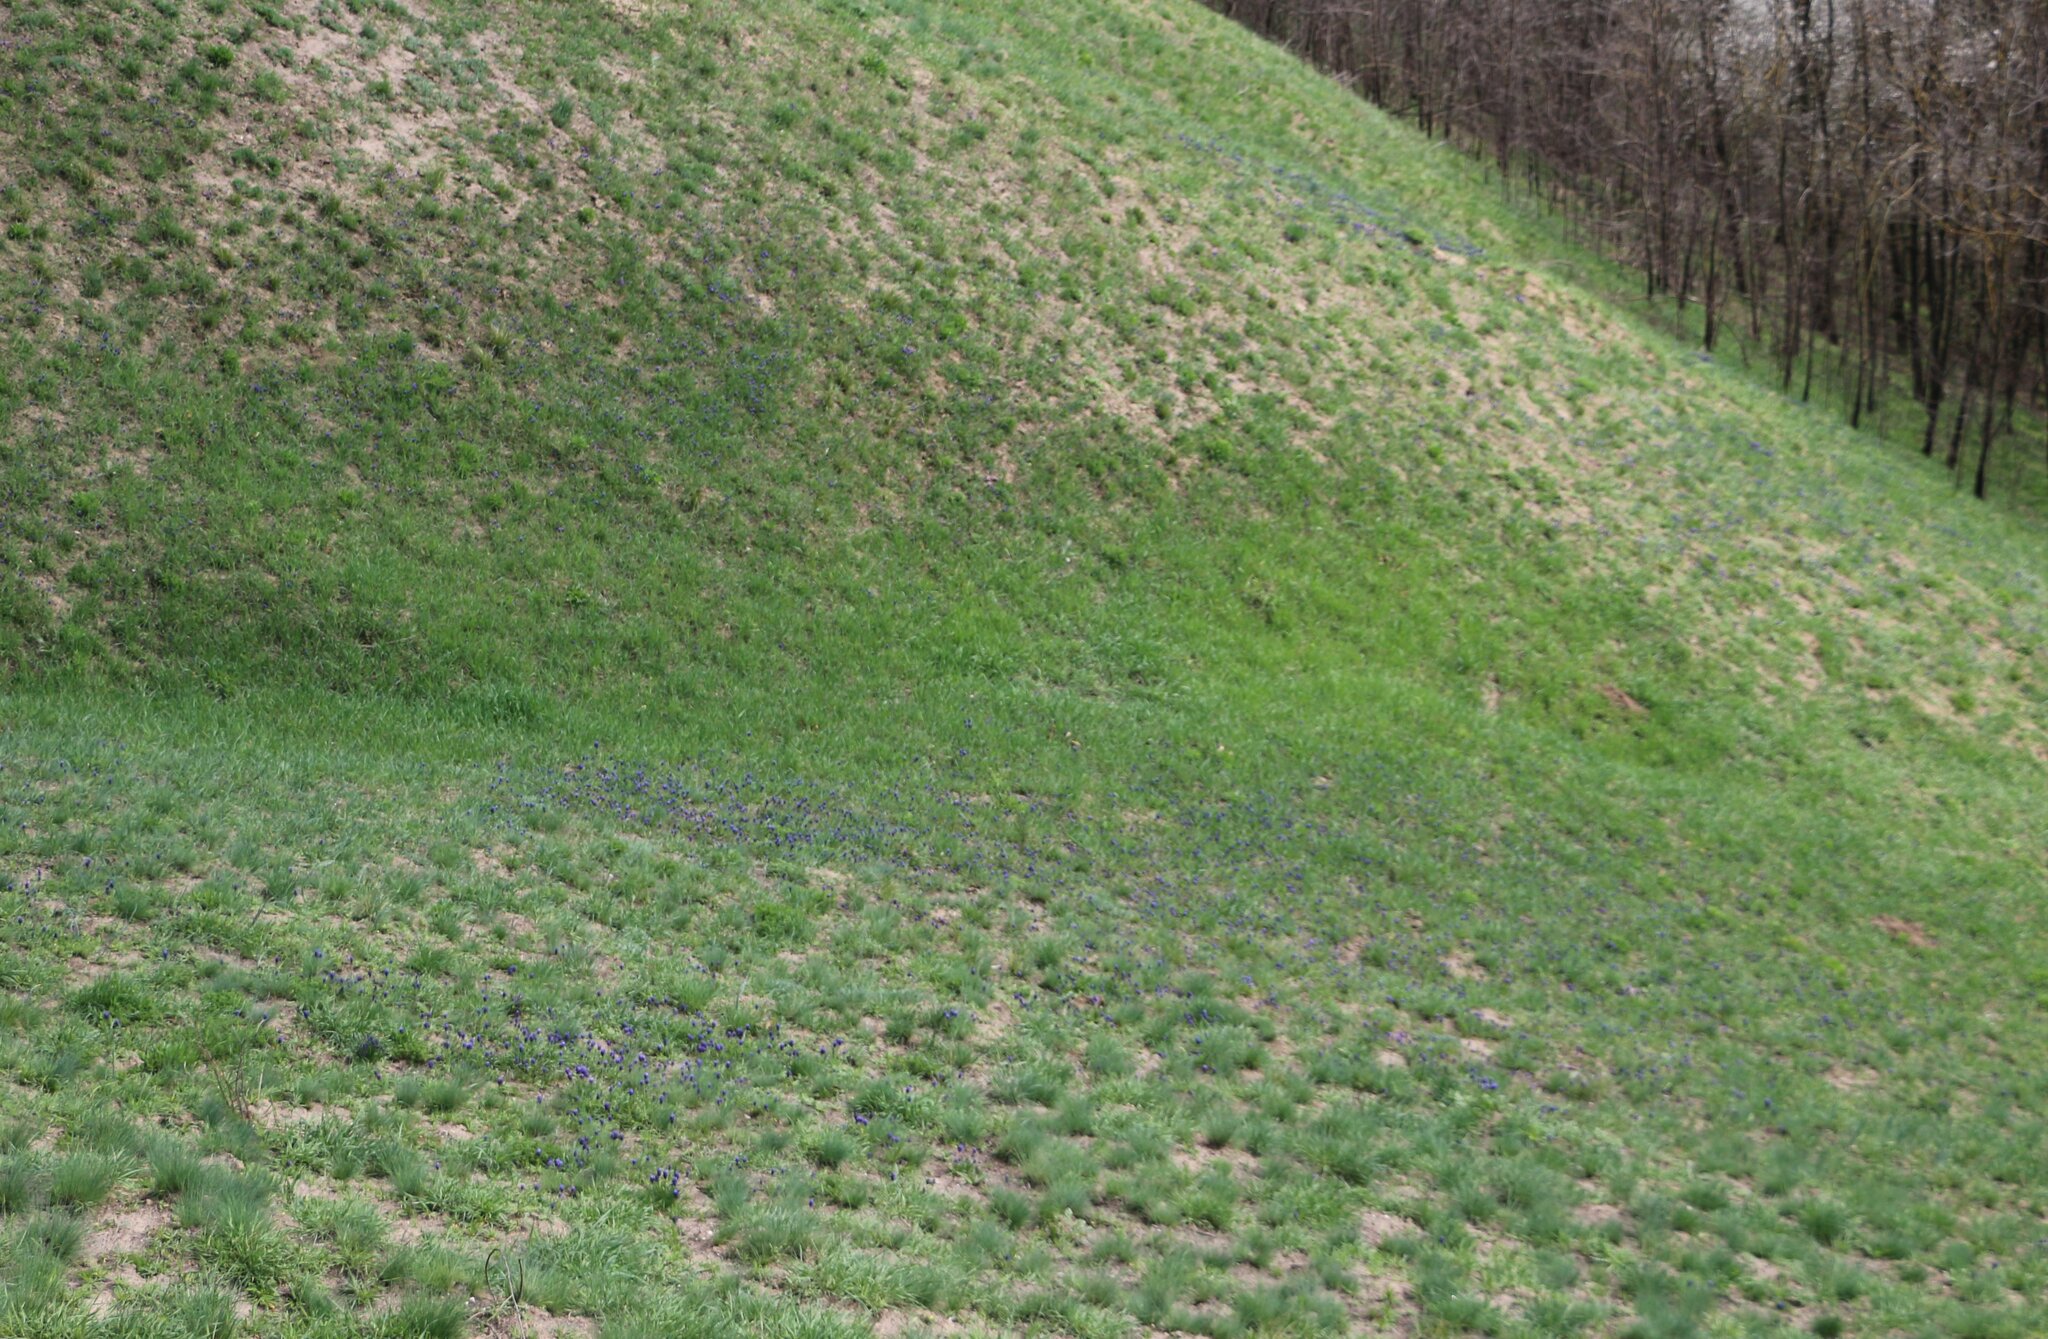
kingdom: Plantae
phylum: Tracheophyta
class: Liliopsida
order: Asparagales
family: Asparagaceae
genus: Muscari
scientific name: Muscari neglectum
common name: Grape-hyacinth
